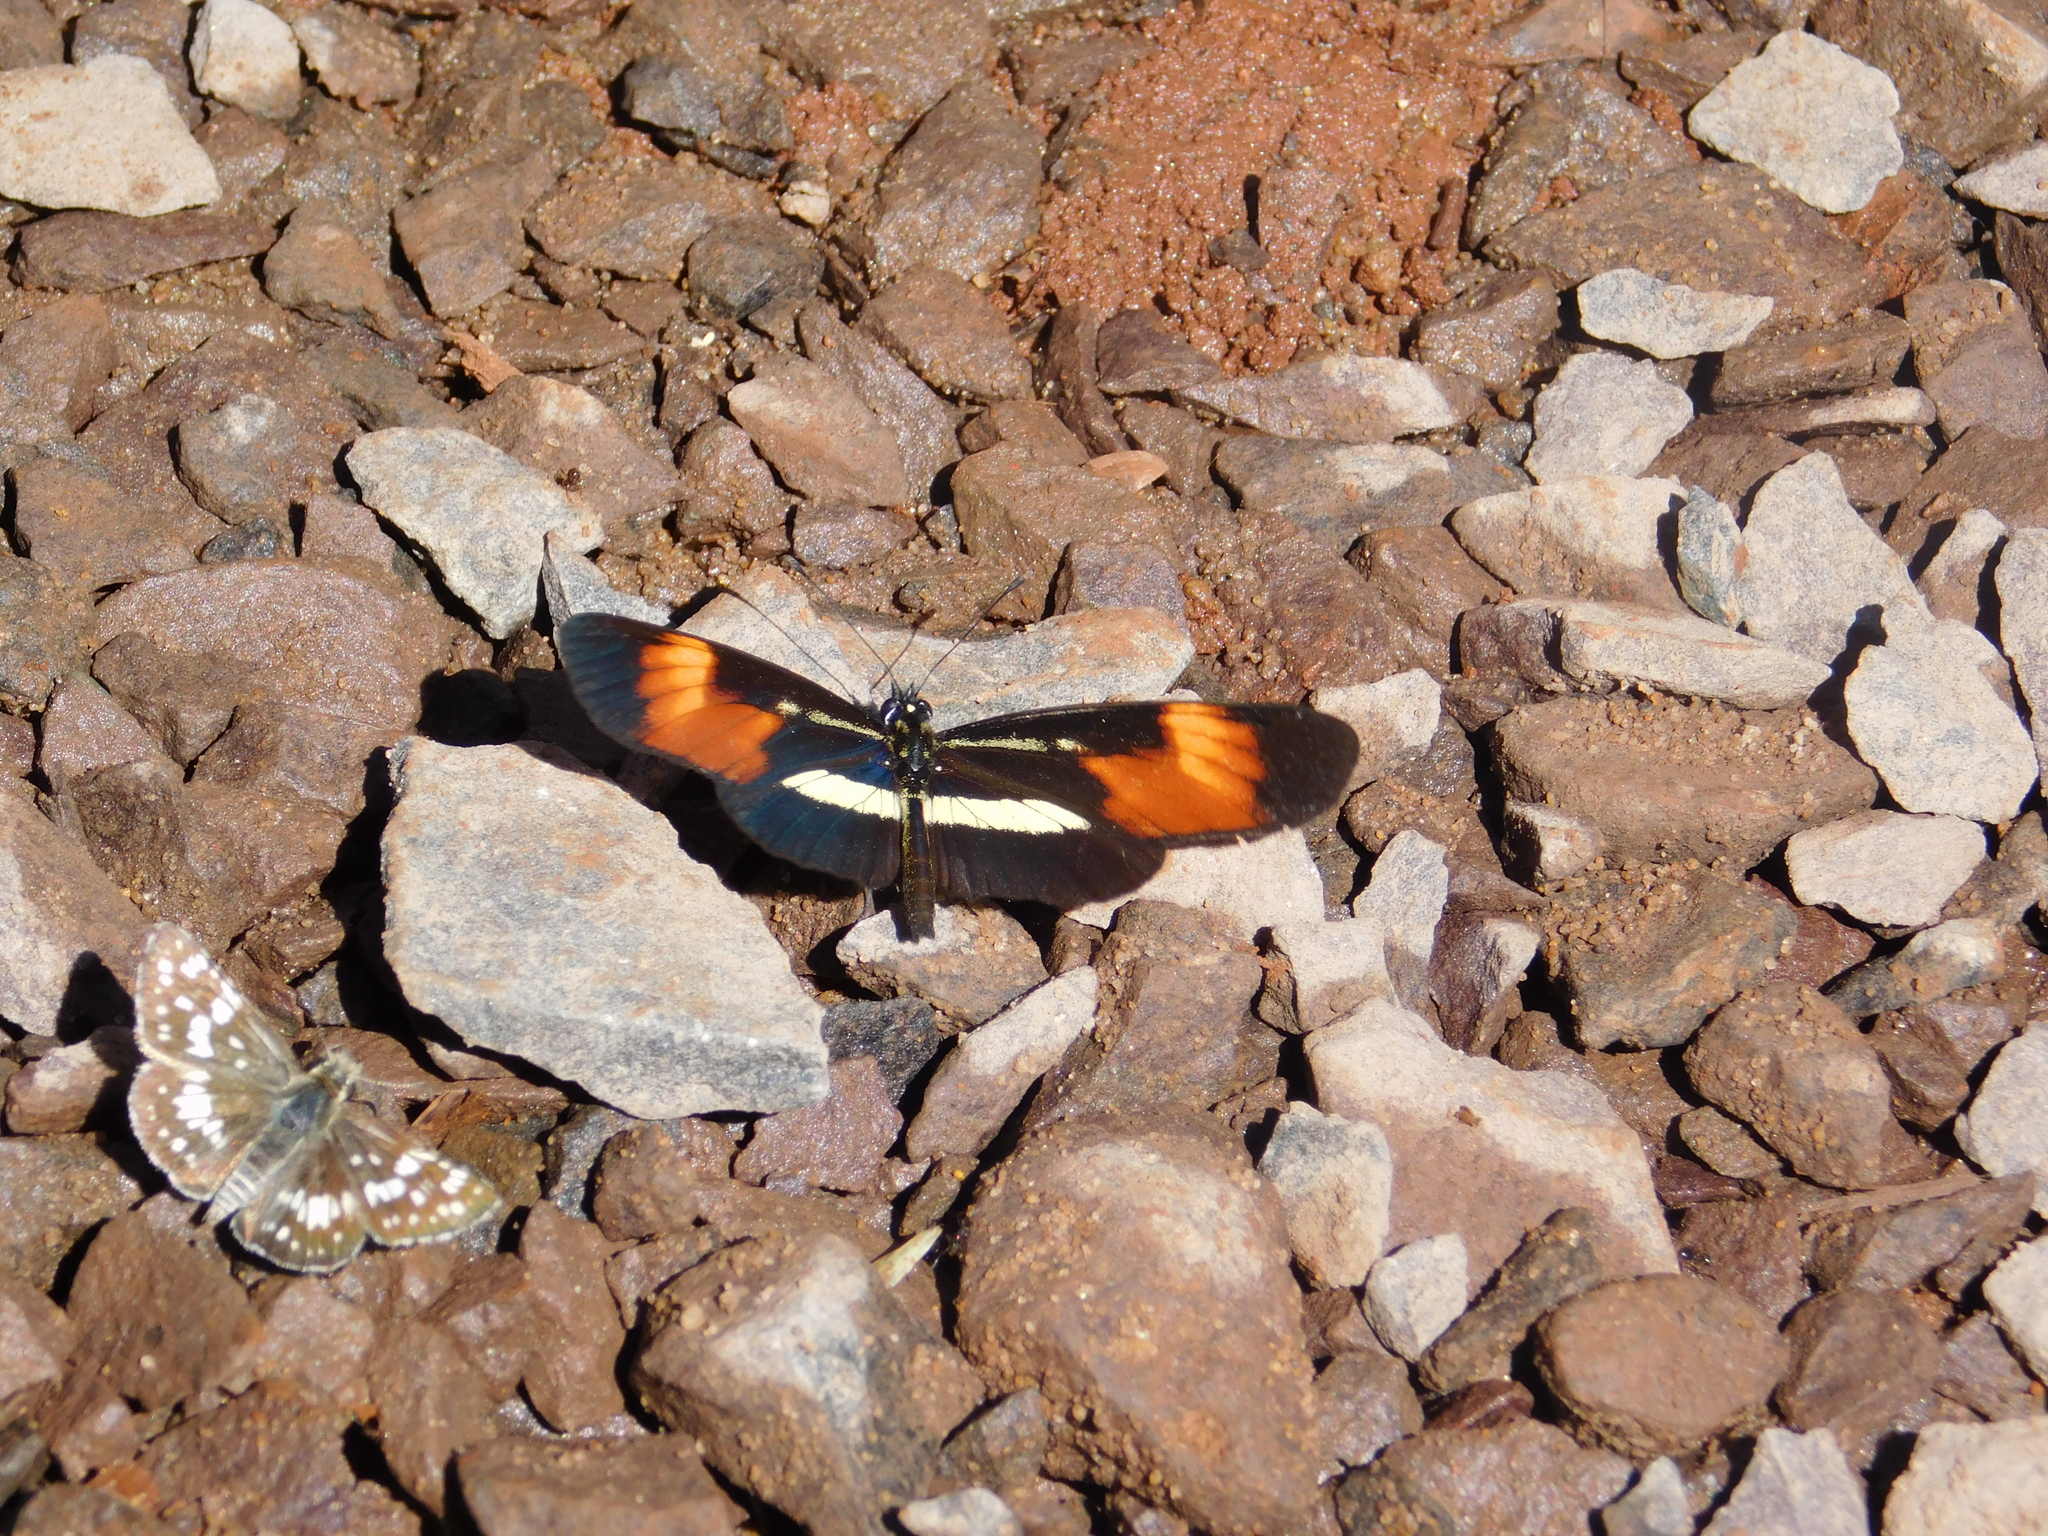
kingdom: Animalia
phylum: Arthropoda
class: Insecta
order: Lepidoptera
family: Nymphalidae
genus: Eresia
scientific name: Eresia lansdorfi
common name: Lansdorf's crescent
